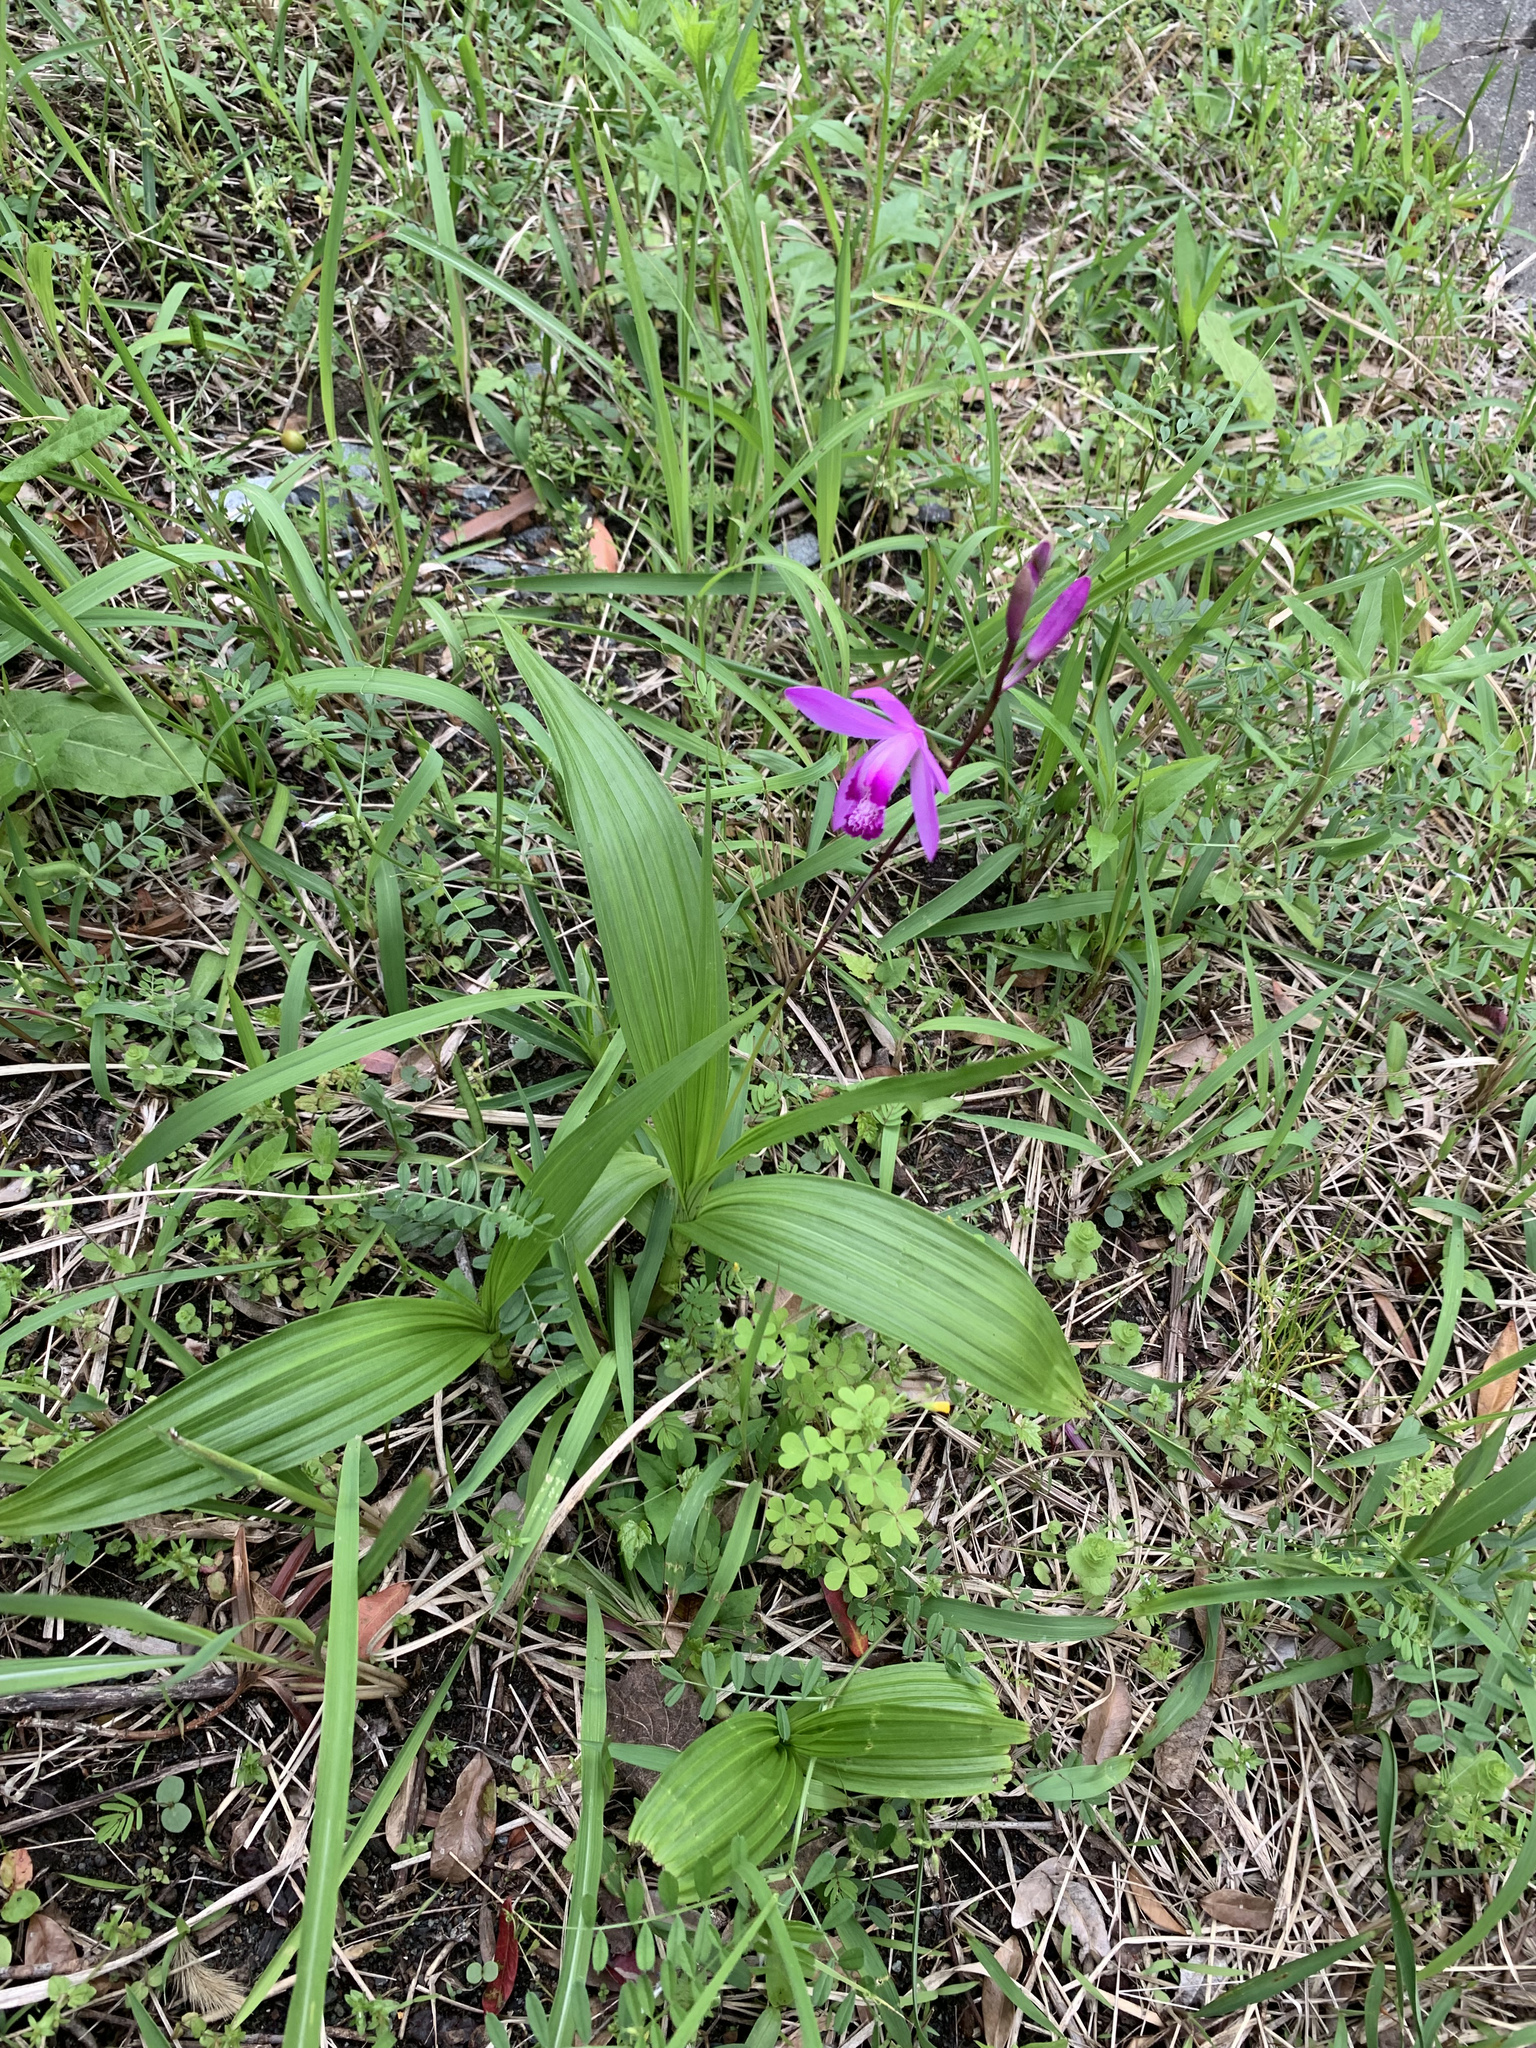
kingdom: Plantae
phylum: Tracheophyta
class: Liliopsida
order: Asparagales
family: Orchidaceae
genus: Bletilla
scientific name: Bletilla striata
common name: Hyacinth orchid
